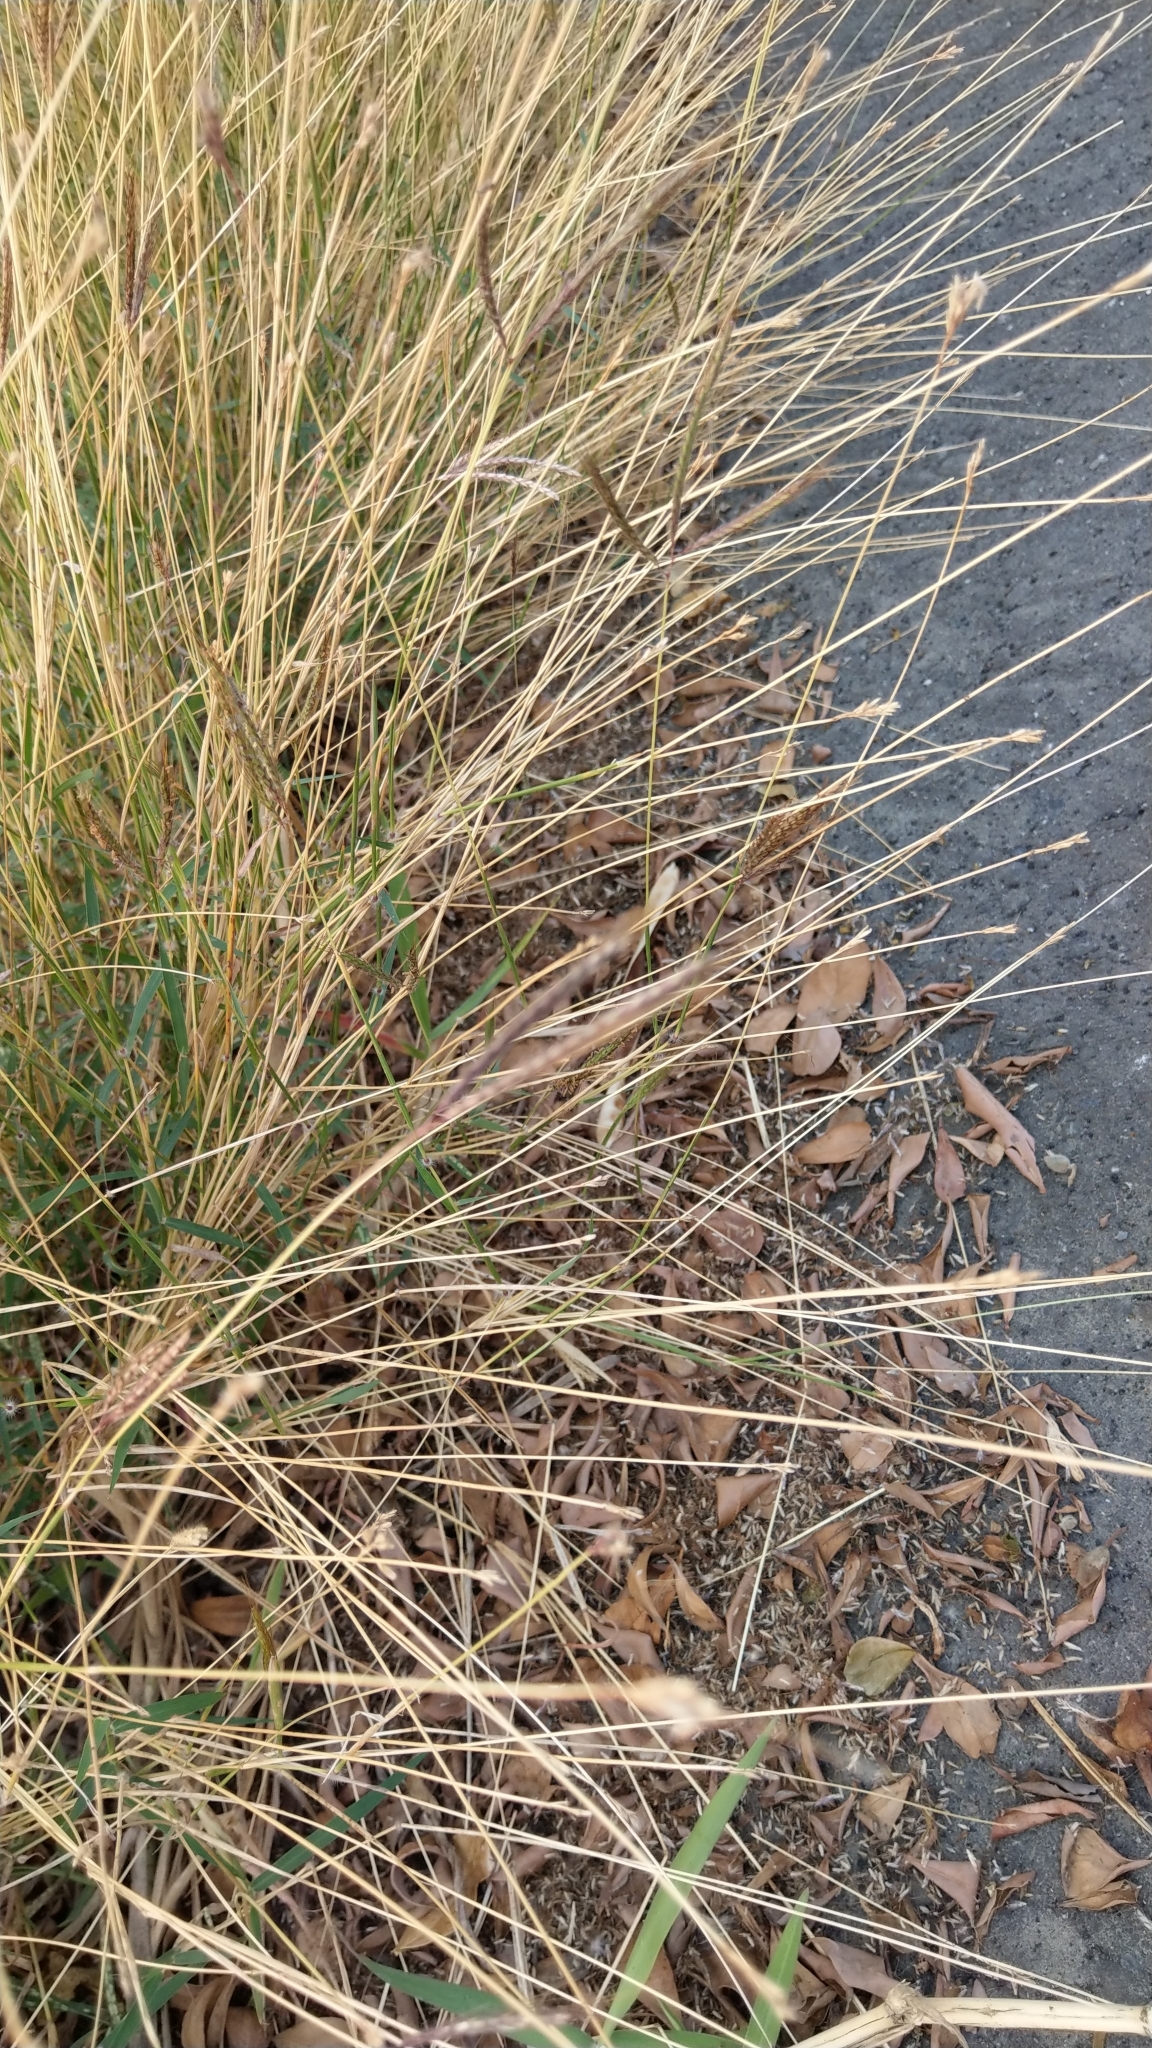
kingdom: Plantae
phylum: Tracheophyta
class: Liliopsida
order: Poales
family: Poaceae
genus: Dichanthium
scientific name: Dichanthium annulatum
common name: Kleberg's bluestem
